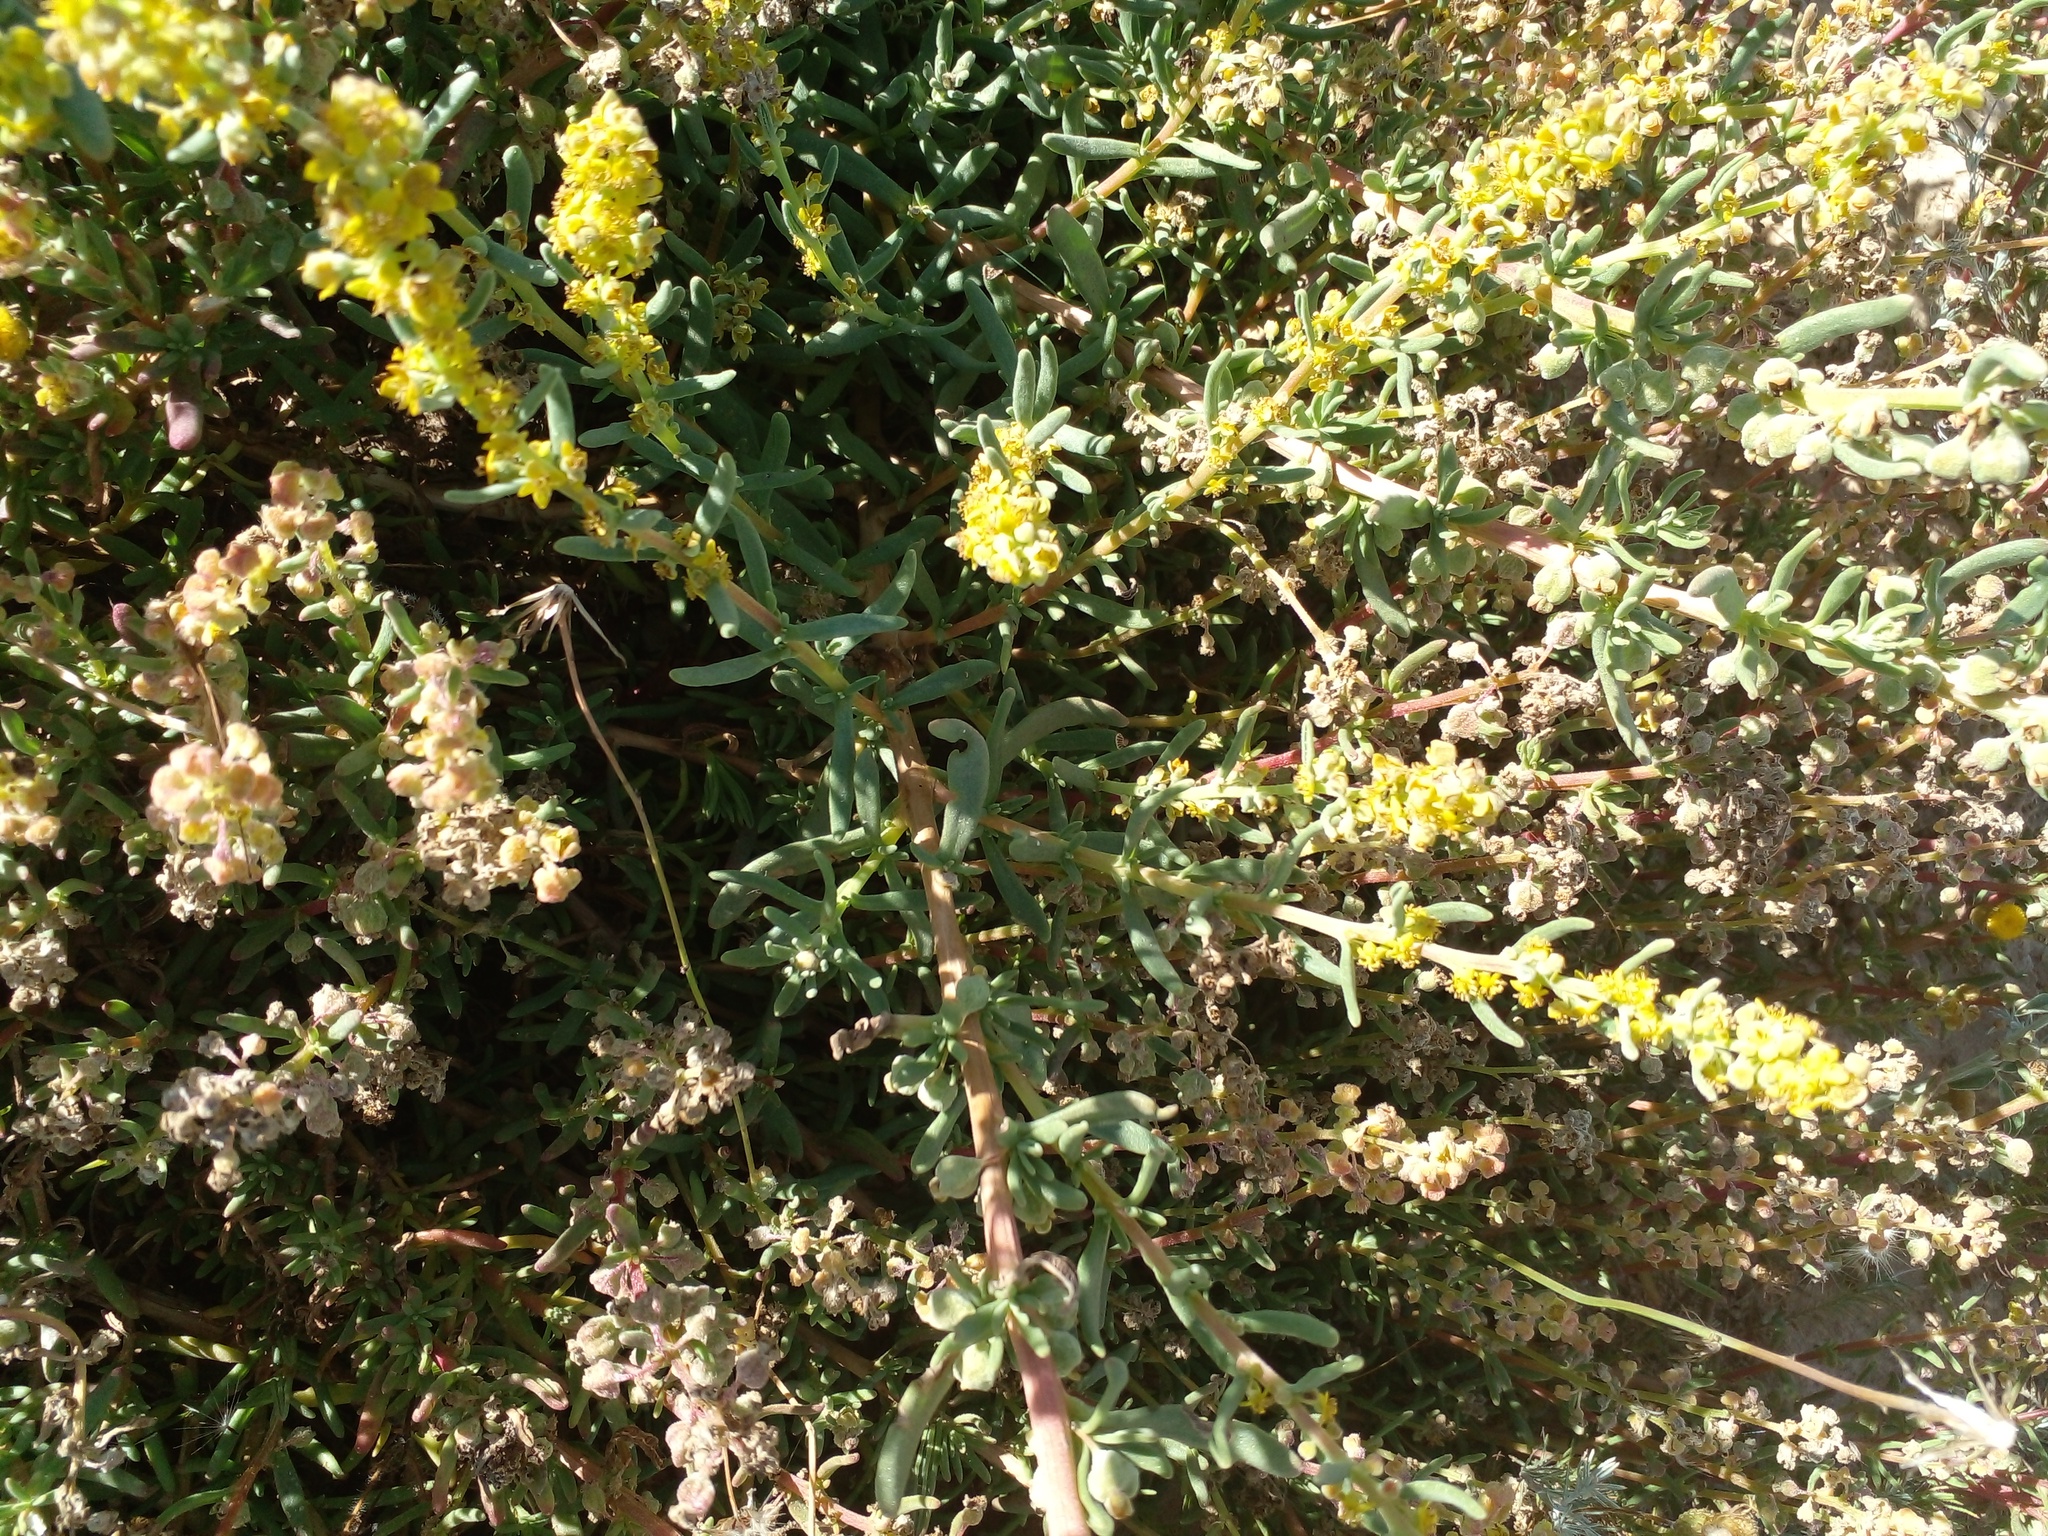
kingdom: Plantae
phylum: Tracheophyta
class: Magnoliopsida
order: Caryophyllales
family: Aizoaceae
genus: Tetragonia
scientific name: Tetragonia fruticosa
